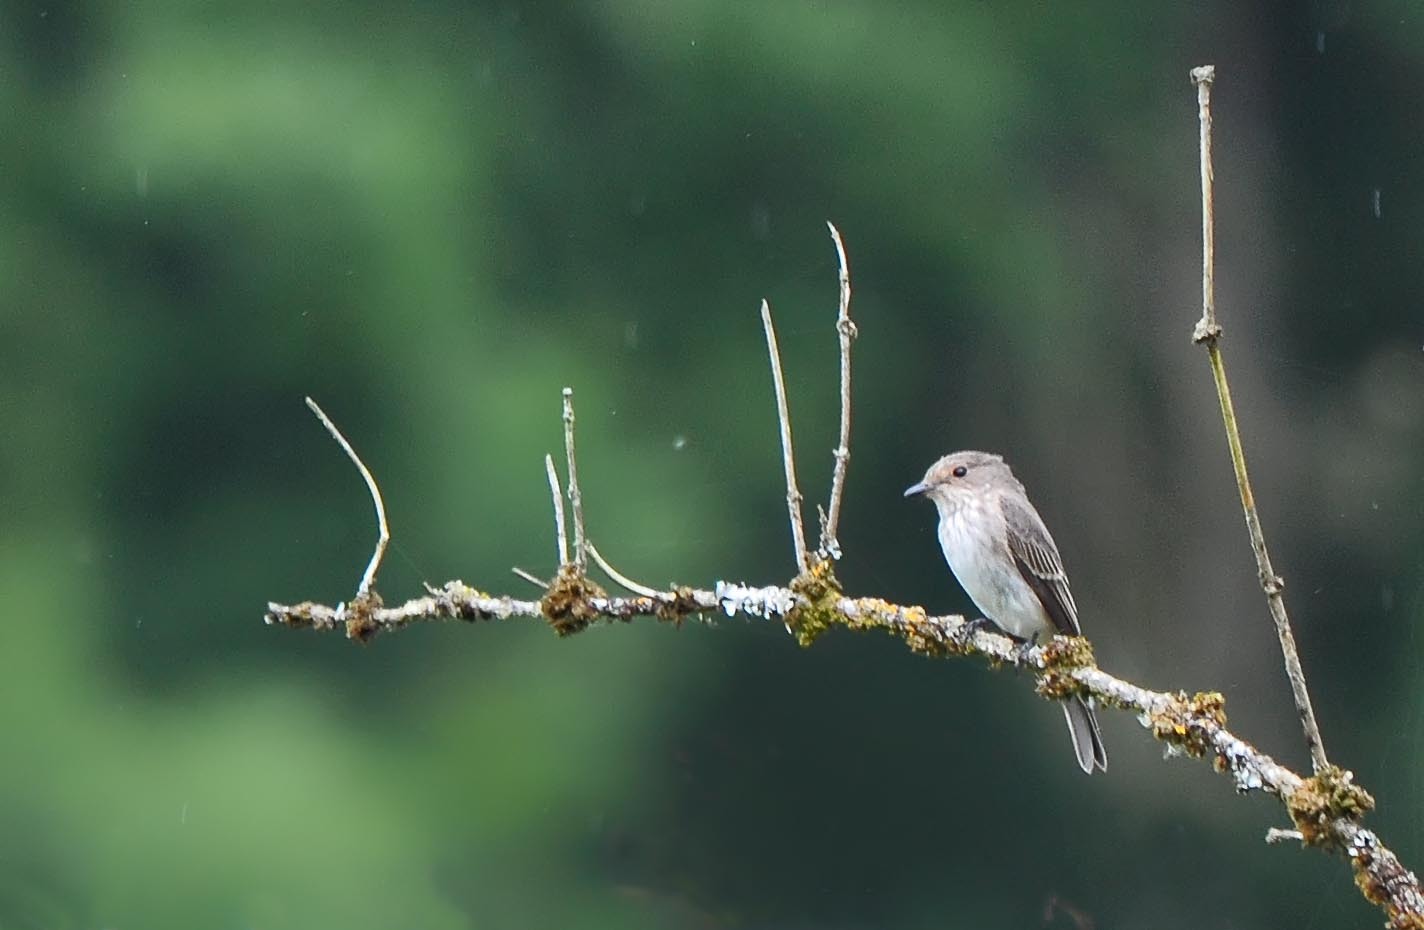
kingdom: Animalia
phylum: Chordata
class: Aves
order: Passeriformes
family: Muscicapidae
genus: Muscicapa
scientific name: Muscicapa striata
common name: Spotted flycatcher
